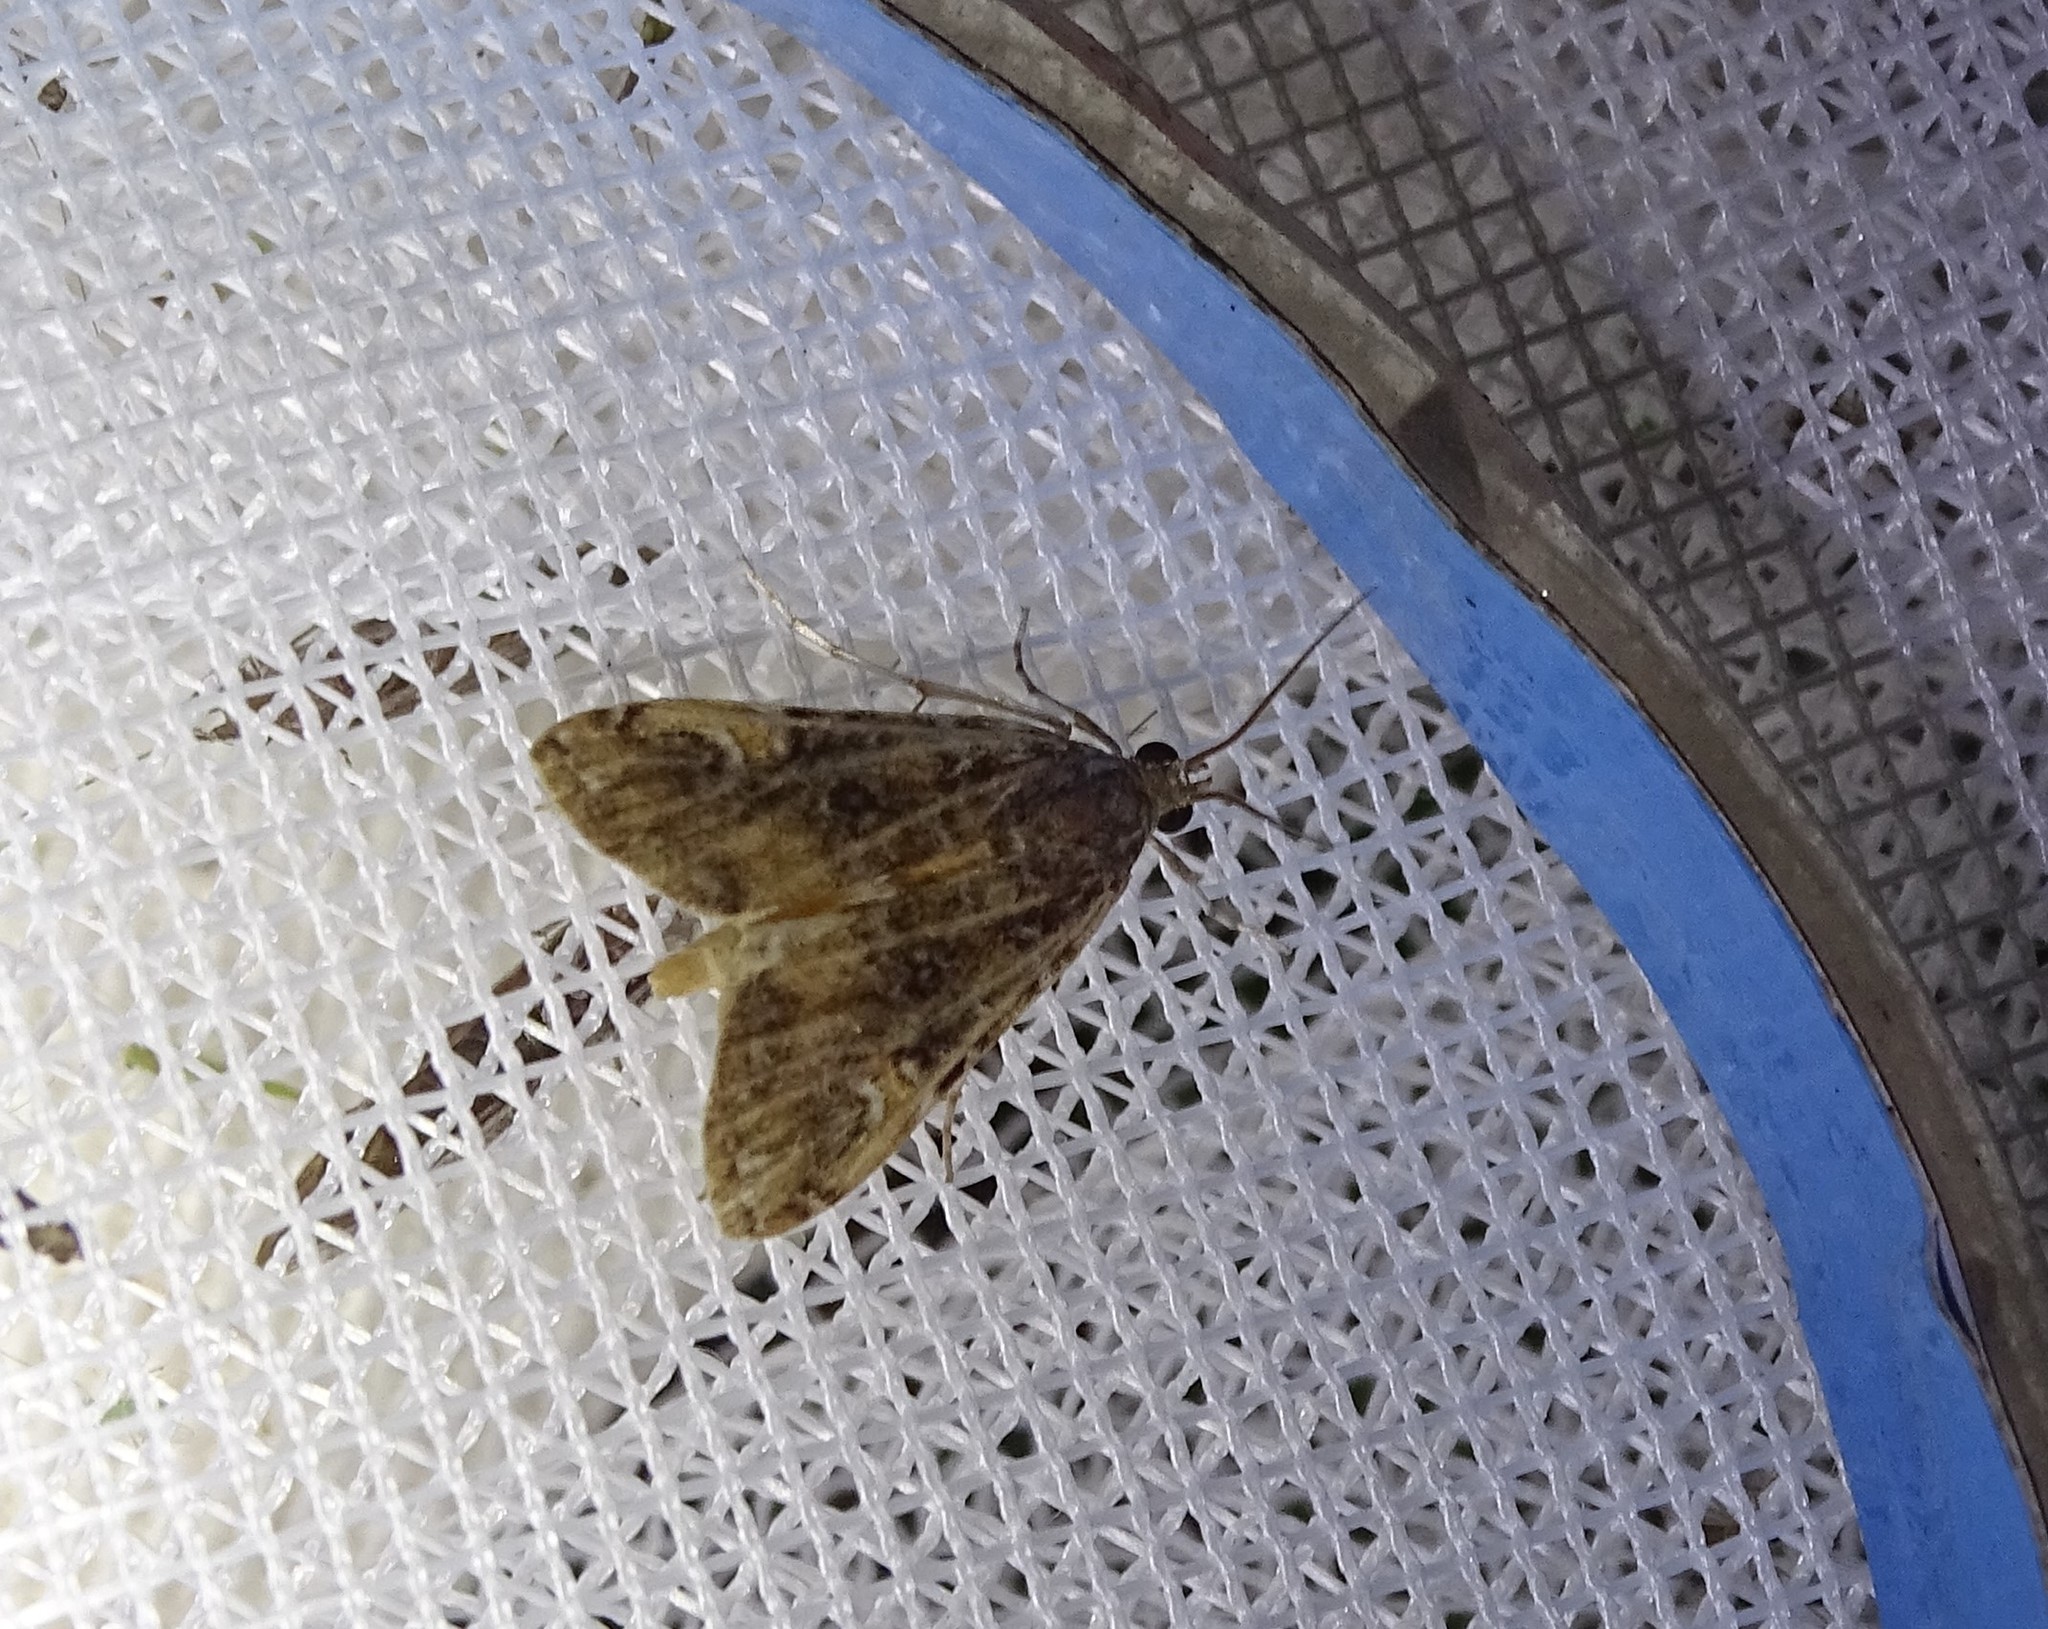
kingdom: Animalia
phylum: Arthropoda
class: Insecta
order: Lepidoptera
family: Crambidae
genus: Elophila
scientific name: Elophila gyralis
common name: Waterlily borer moth
